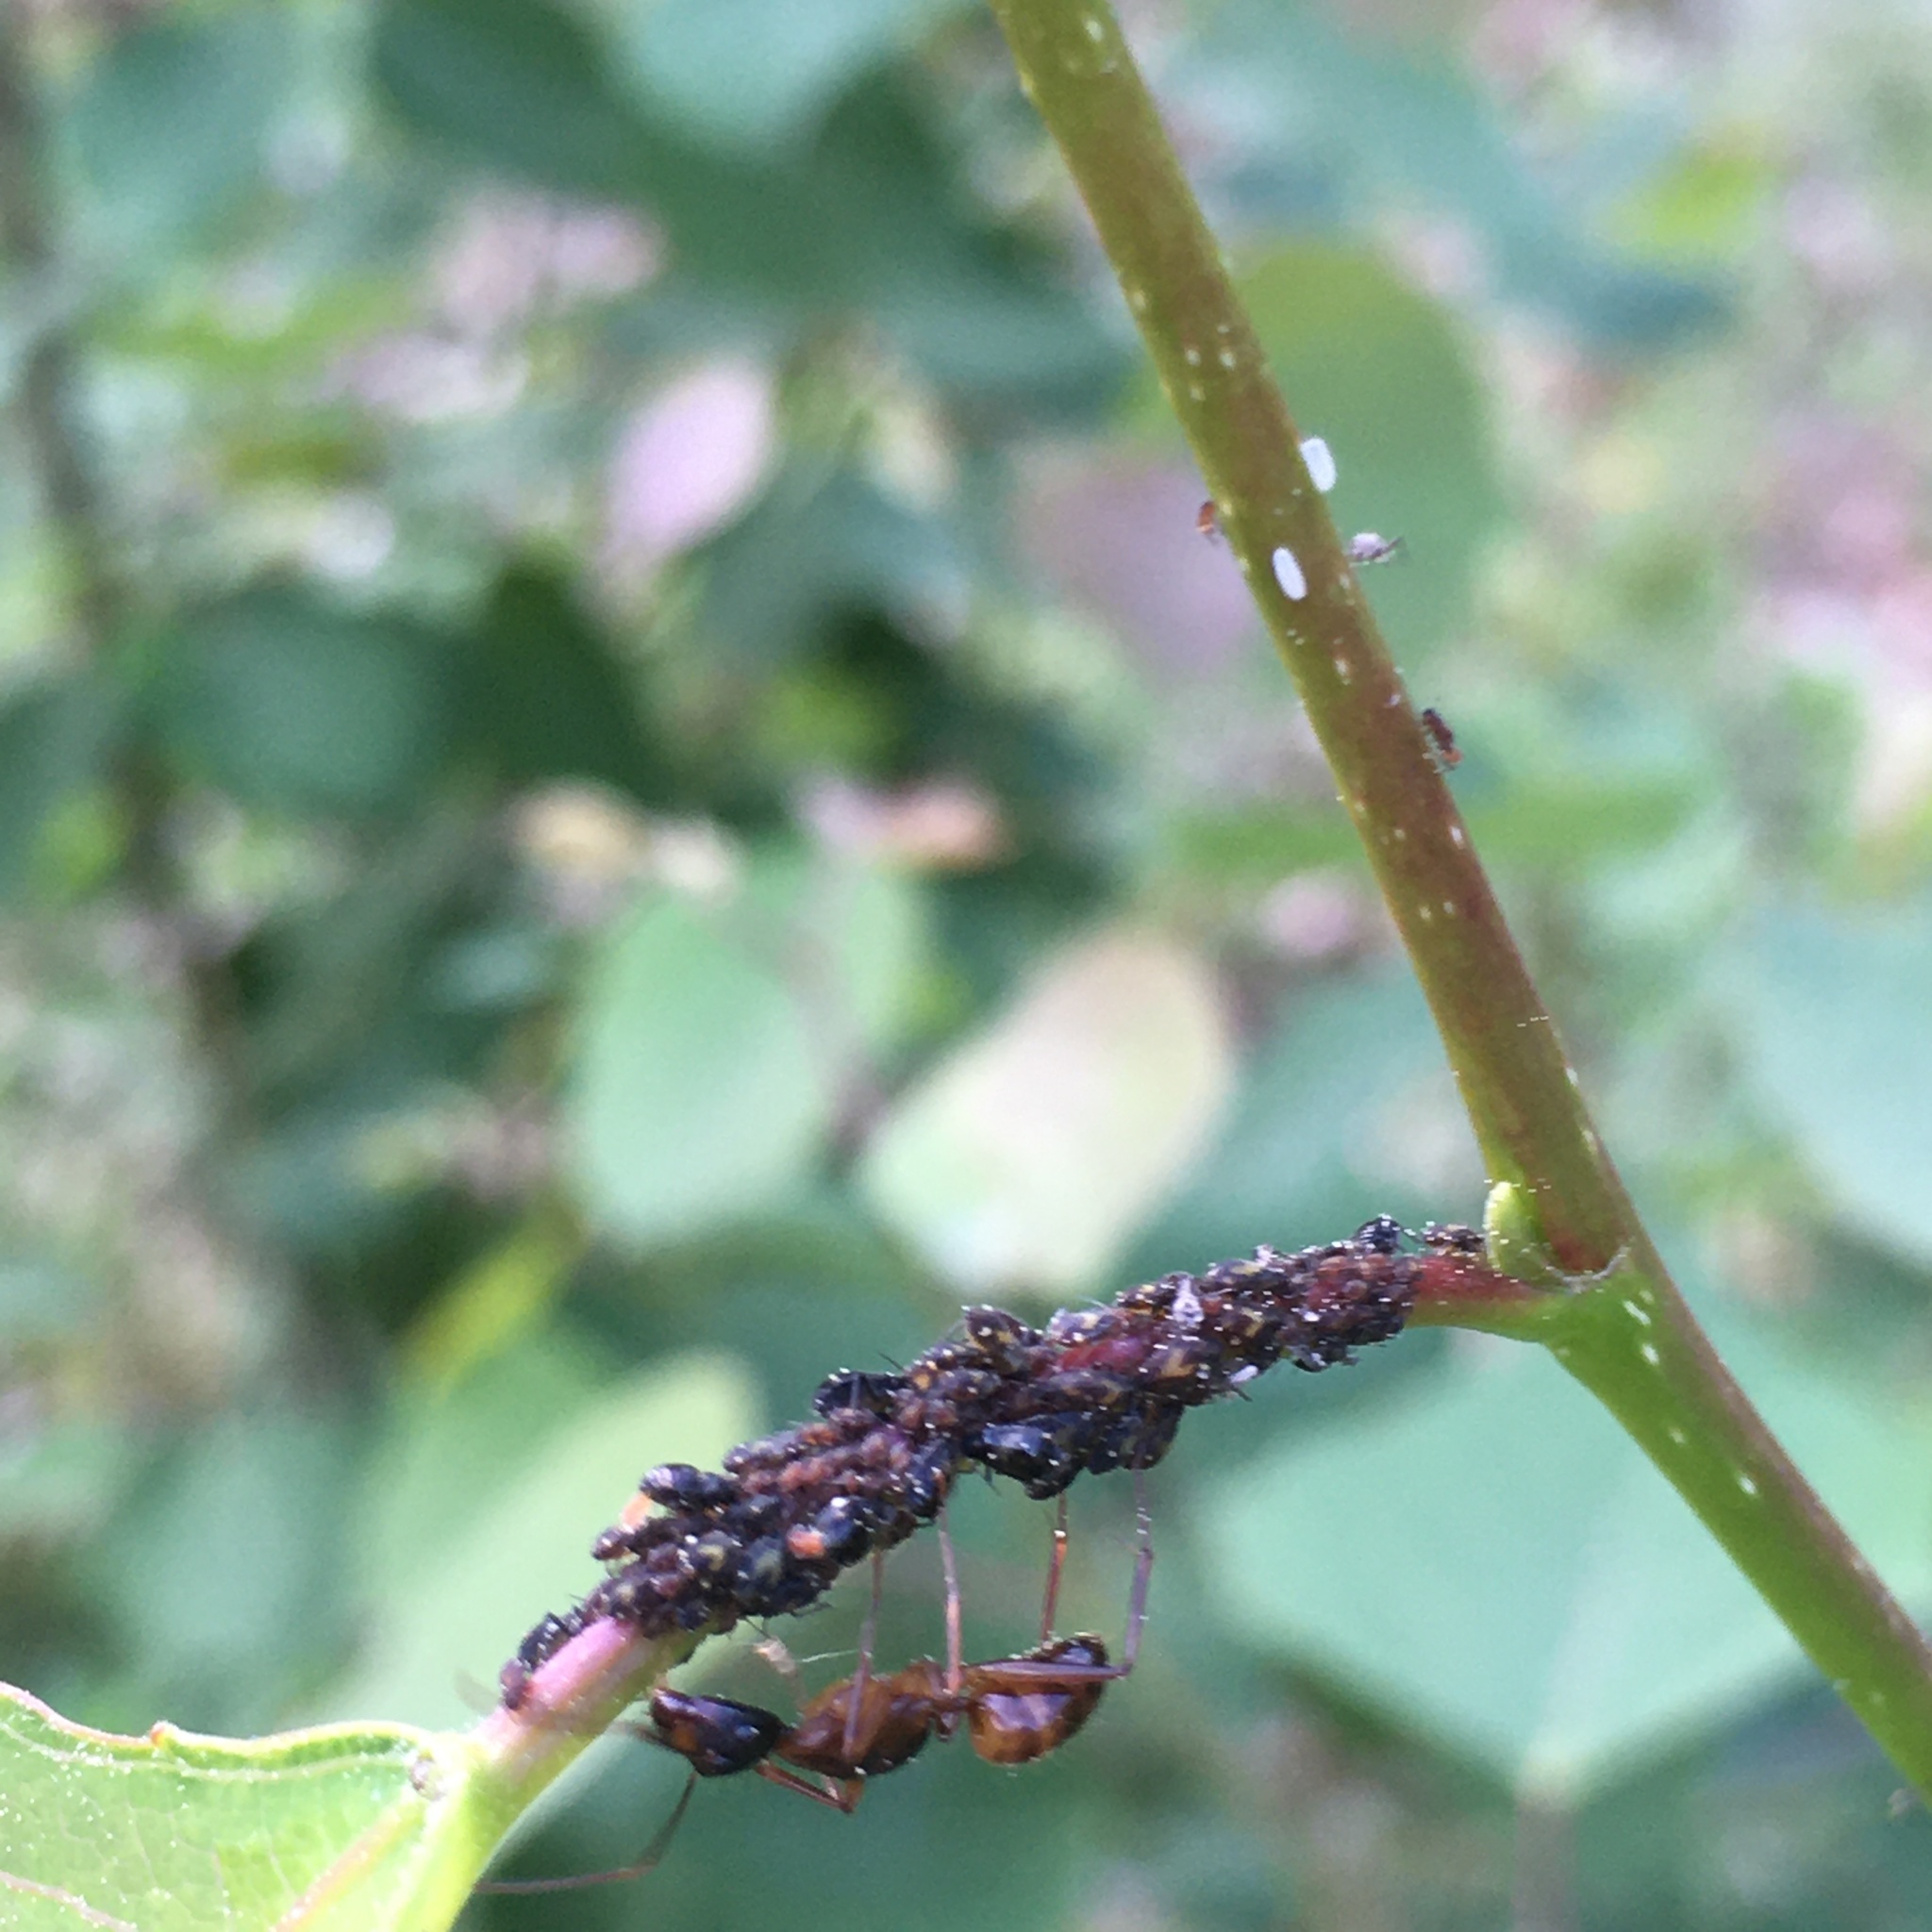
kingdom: Animalia
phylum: Arthropoda
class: Insecta
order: Hemiptera
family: Aphididae
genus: Chaitophorus
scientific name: Chaitophorus populicola
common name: Smokywinged poplar aphid
